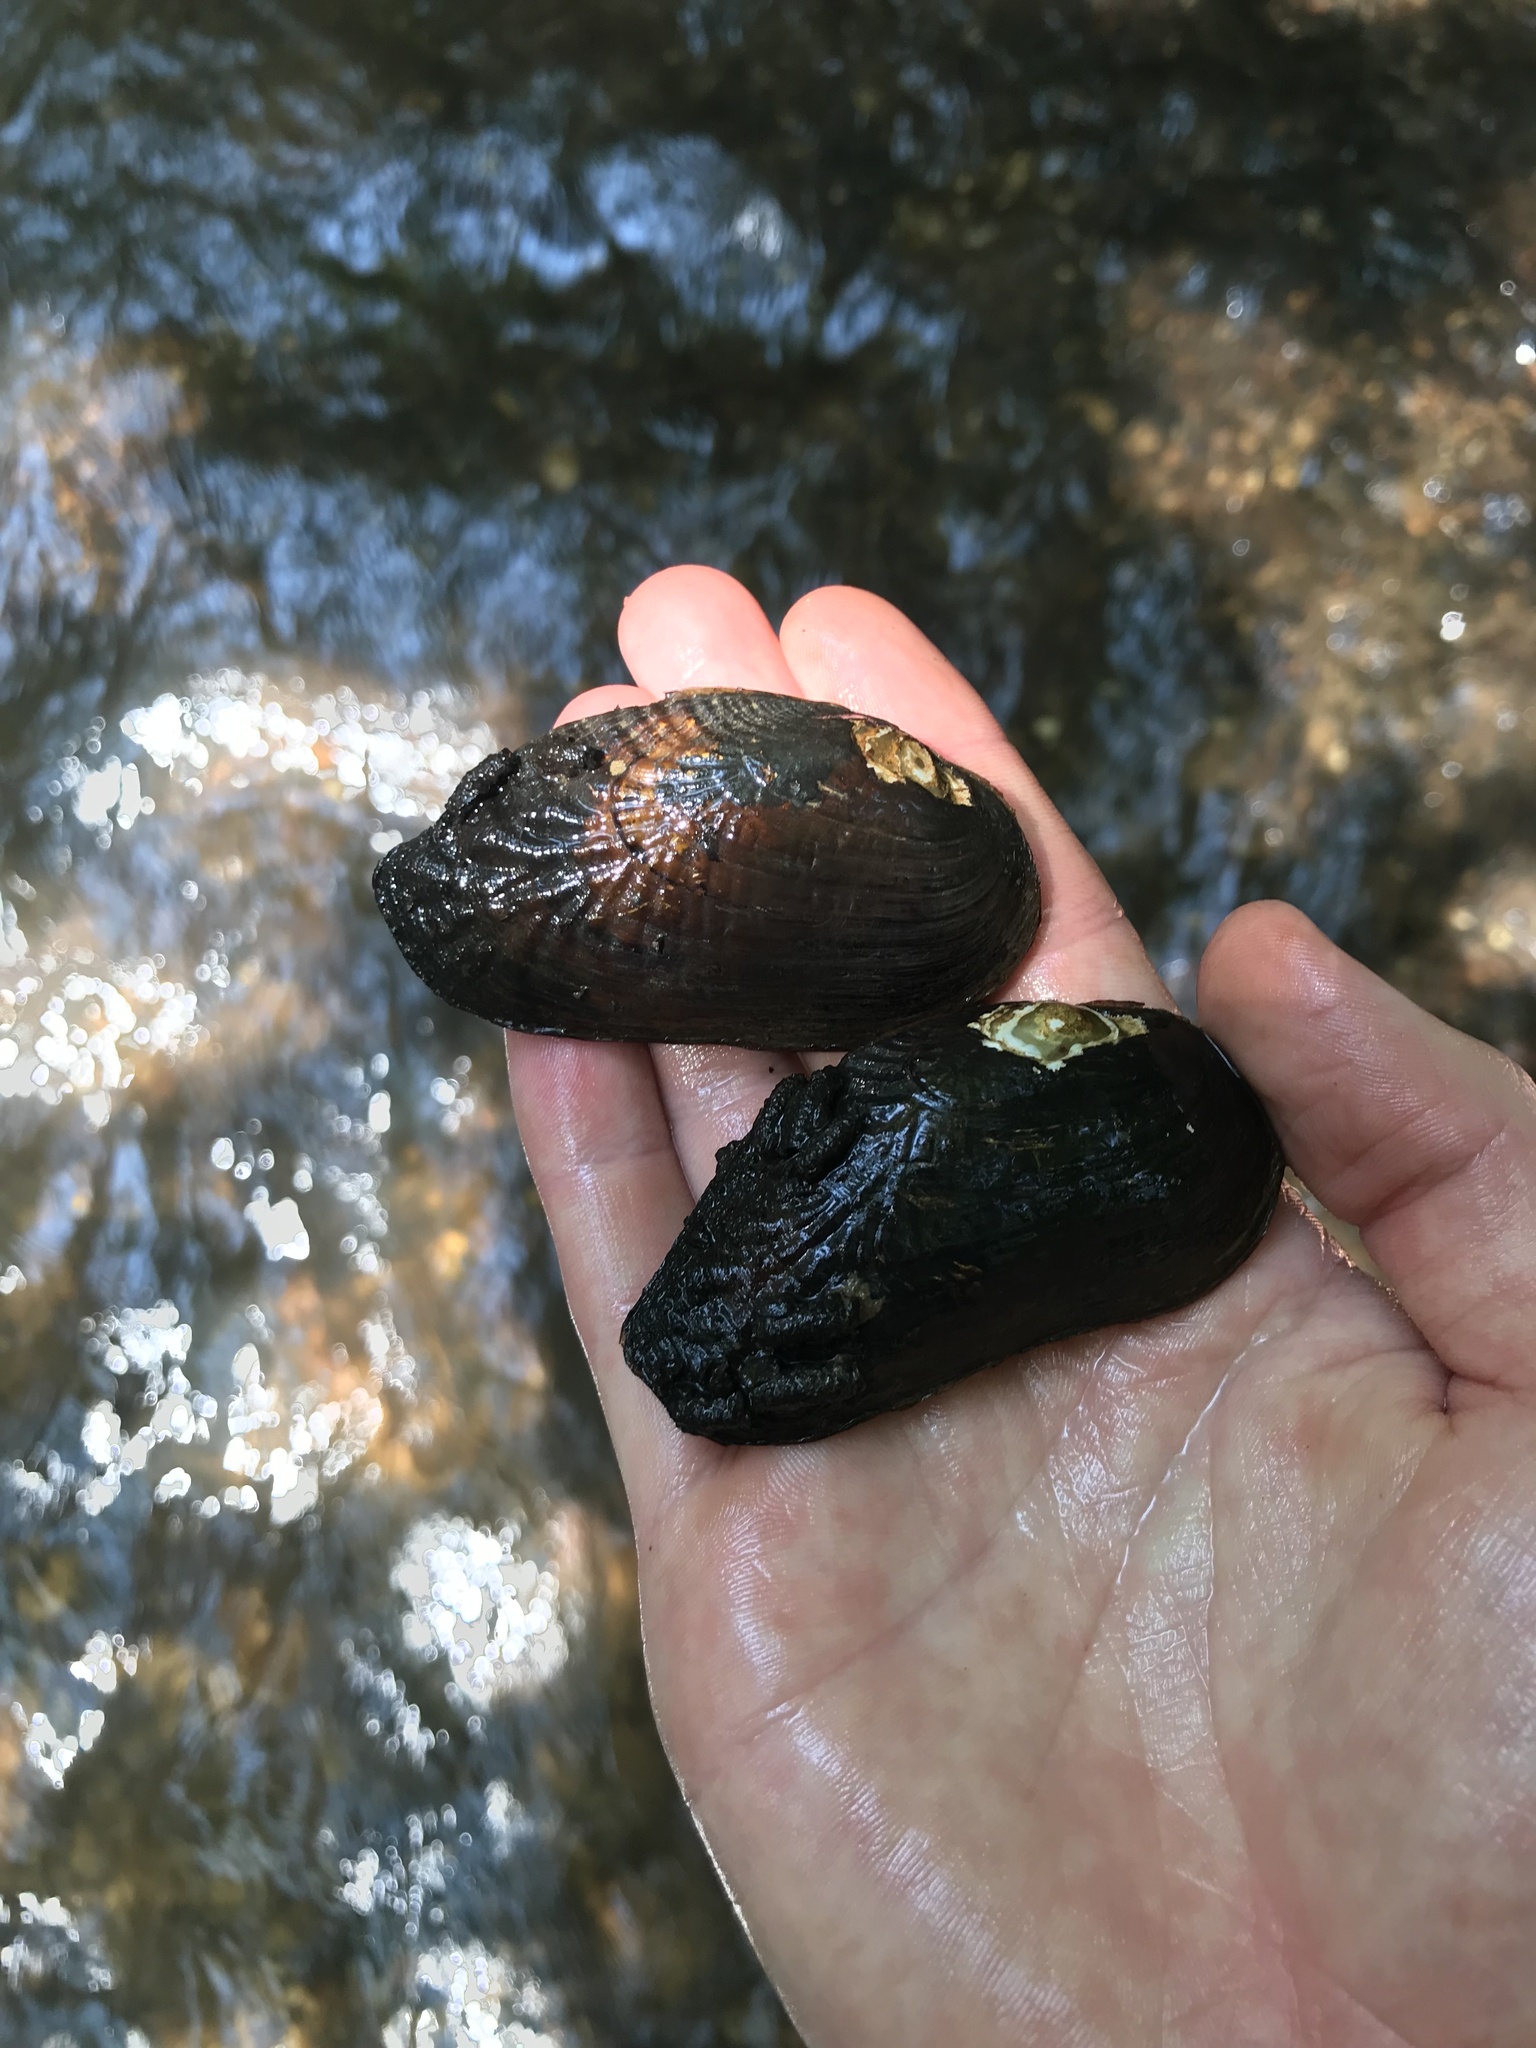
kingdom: Animalia
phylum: Mollusca
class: Bivalvia
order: Unionida
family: Margaritiferidae
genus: Margaritifera
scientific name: Margaritifera marrianae
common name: Alabama pearlshell
